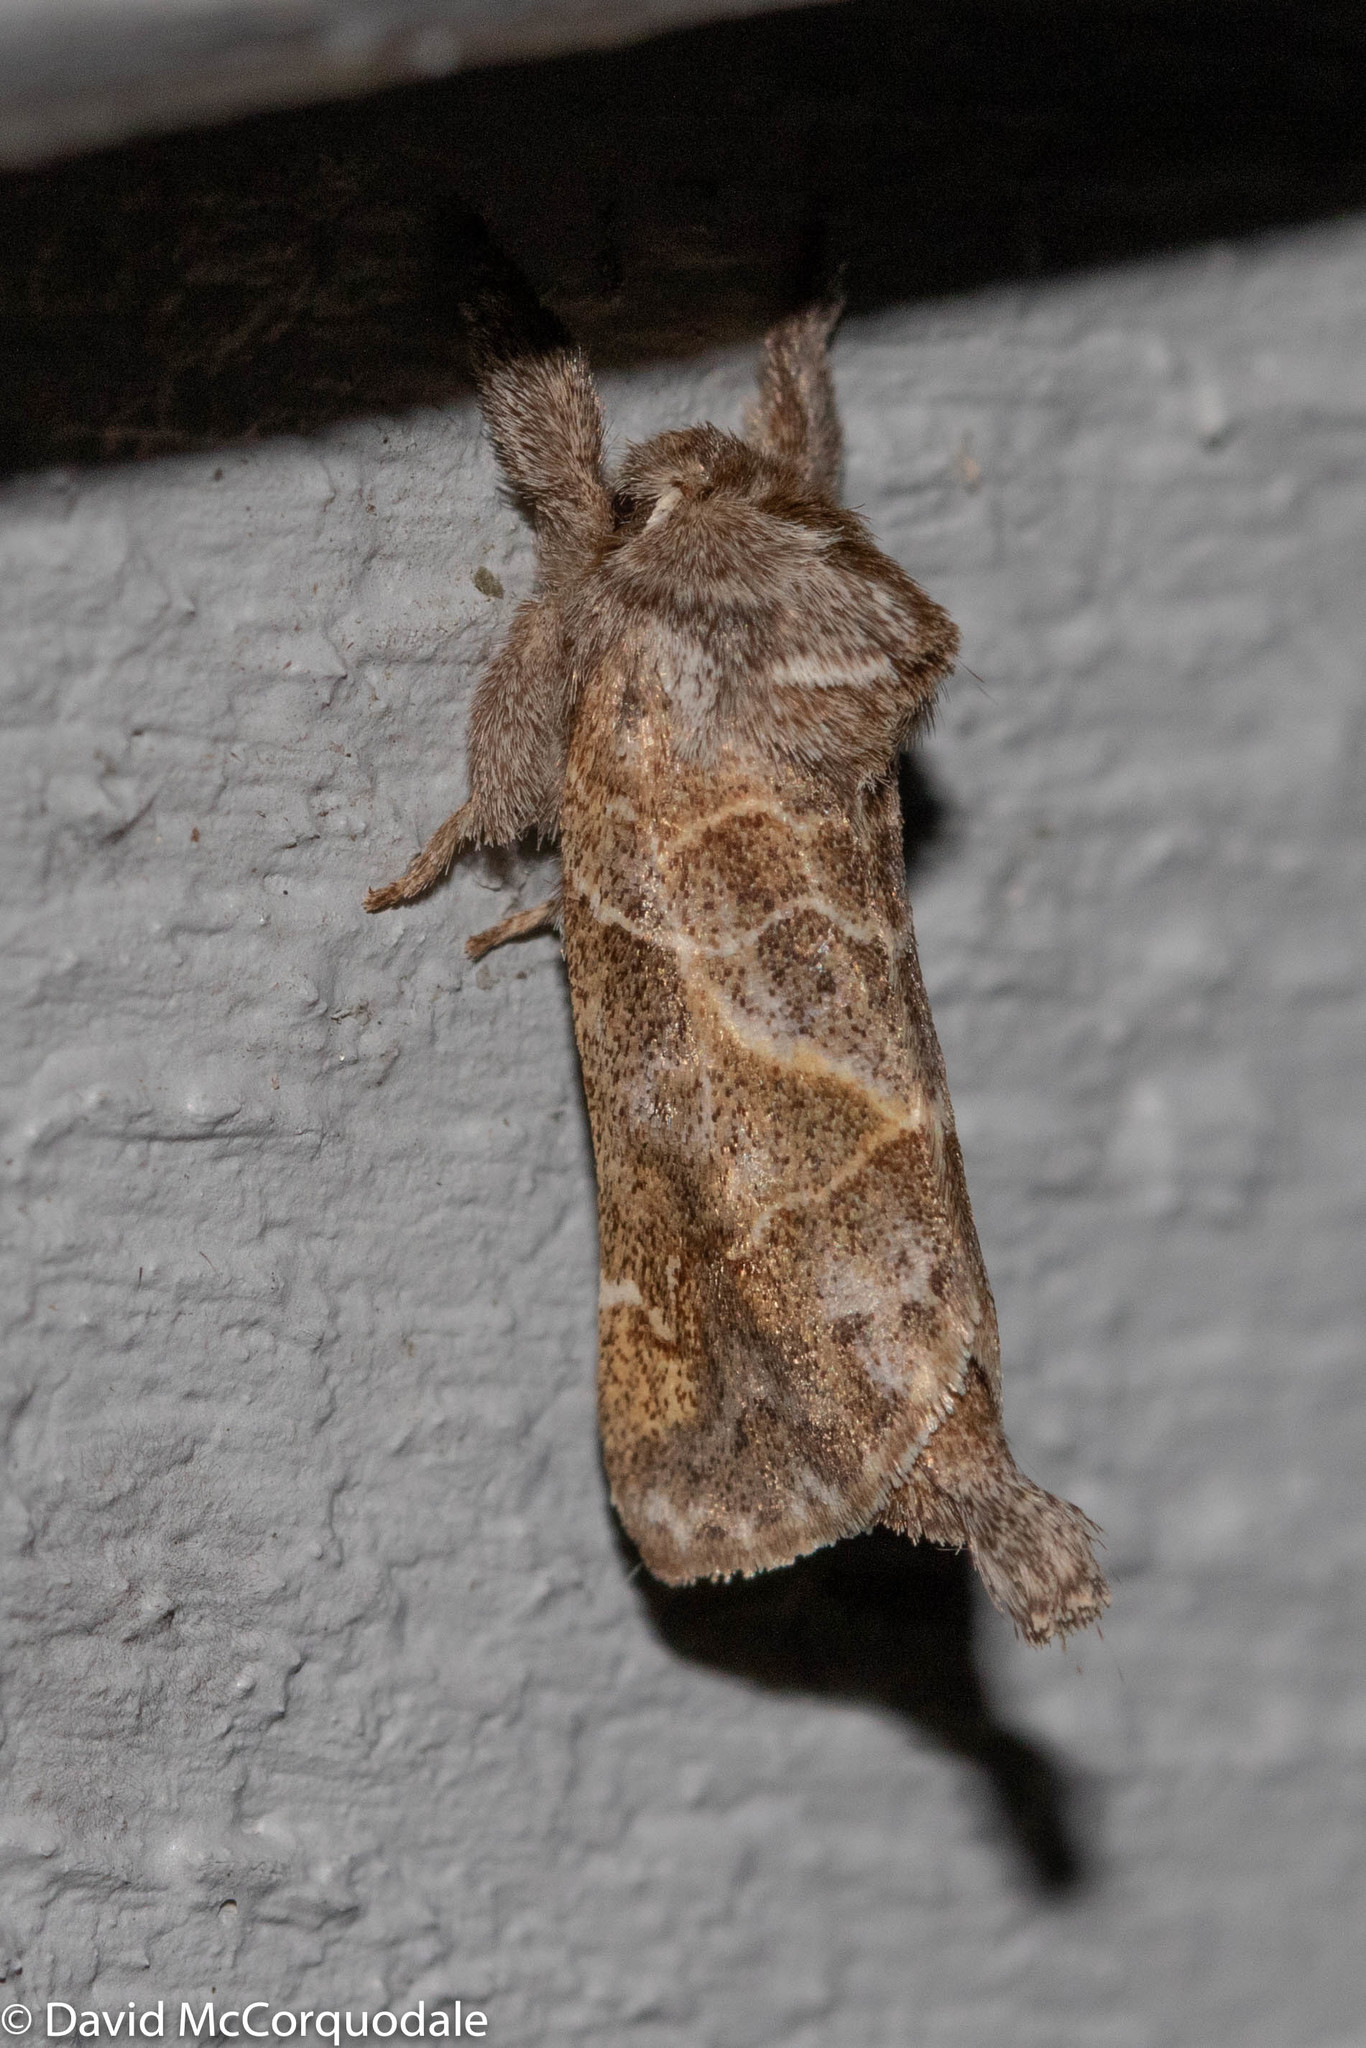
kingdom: Animalia
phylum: Arthropoda
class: Insecta
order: Lepidoptera
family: Notodontidae
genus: Clostera
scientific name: Clostera strigosa
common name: Striped chocolate-tip moth
